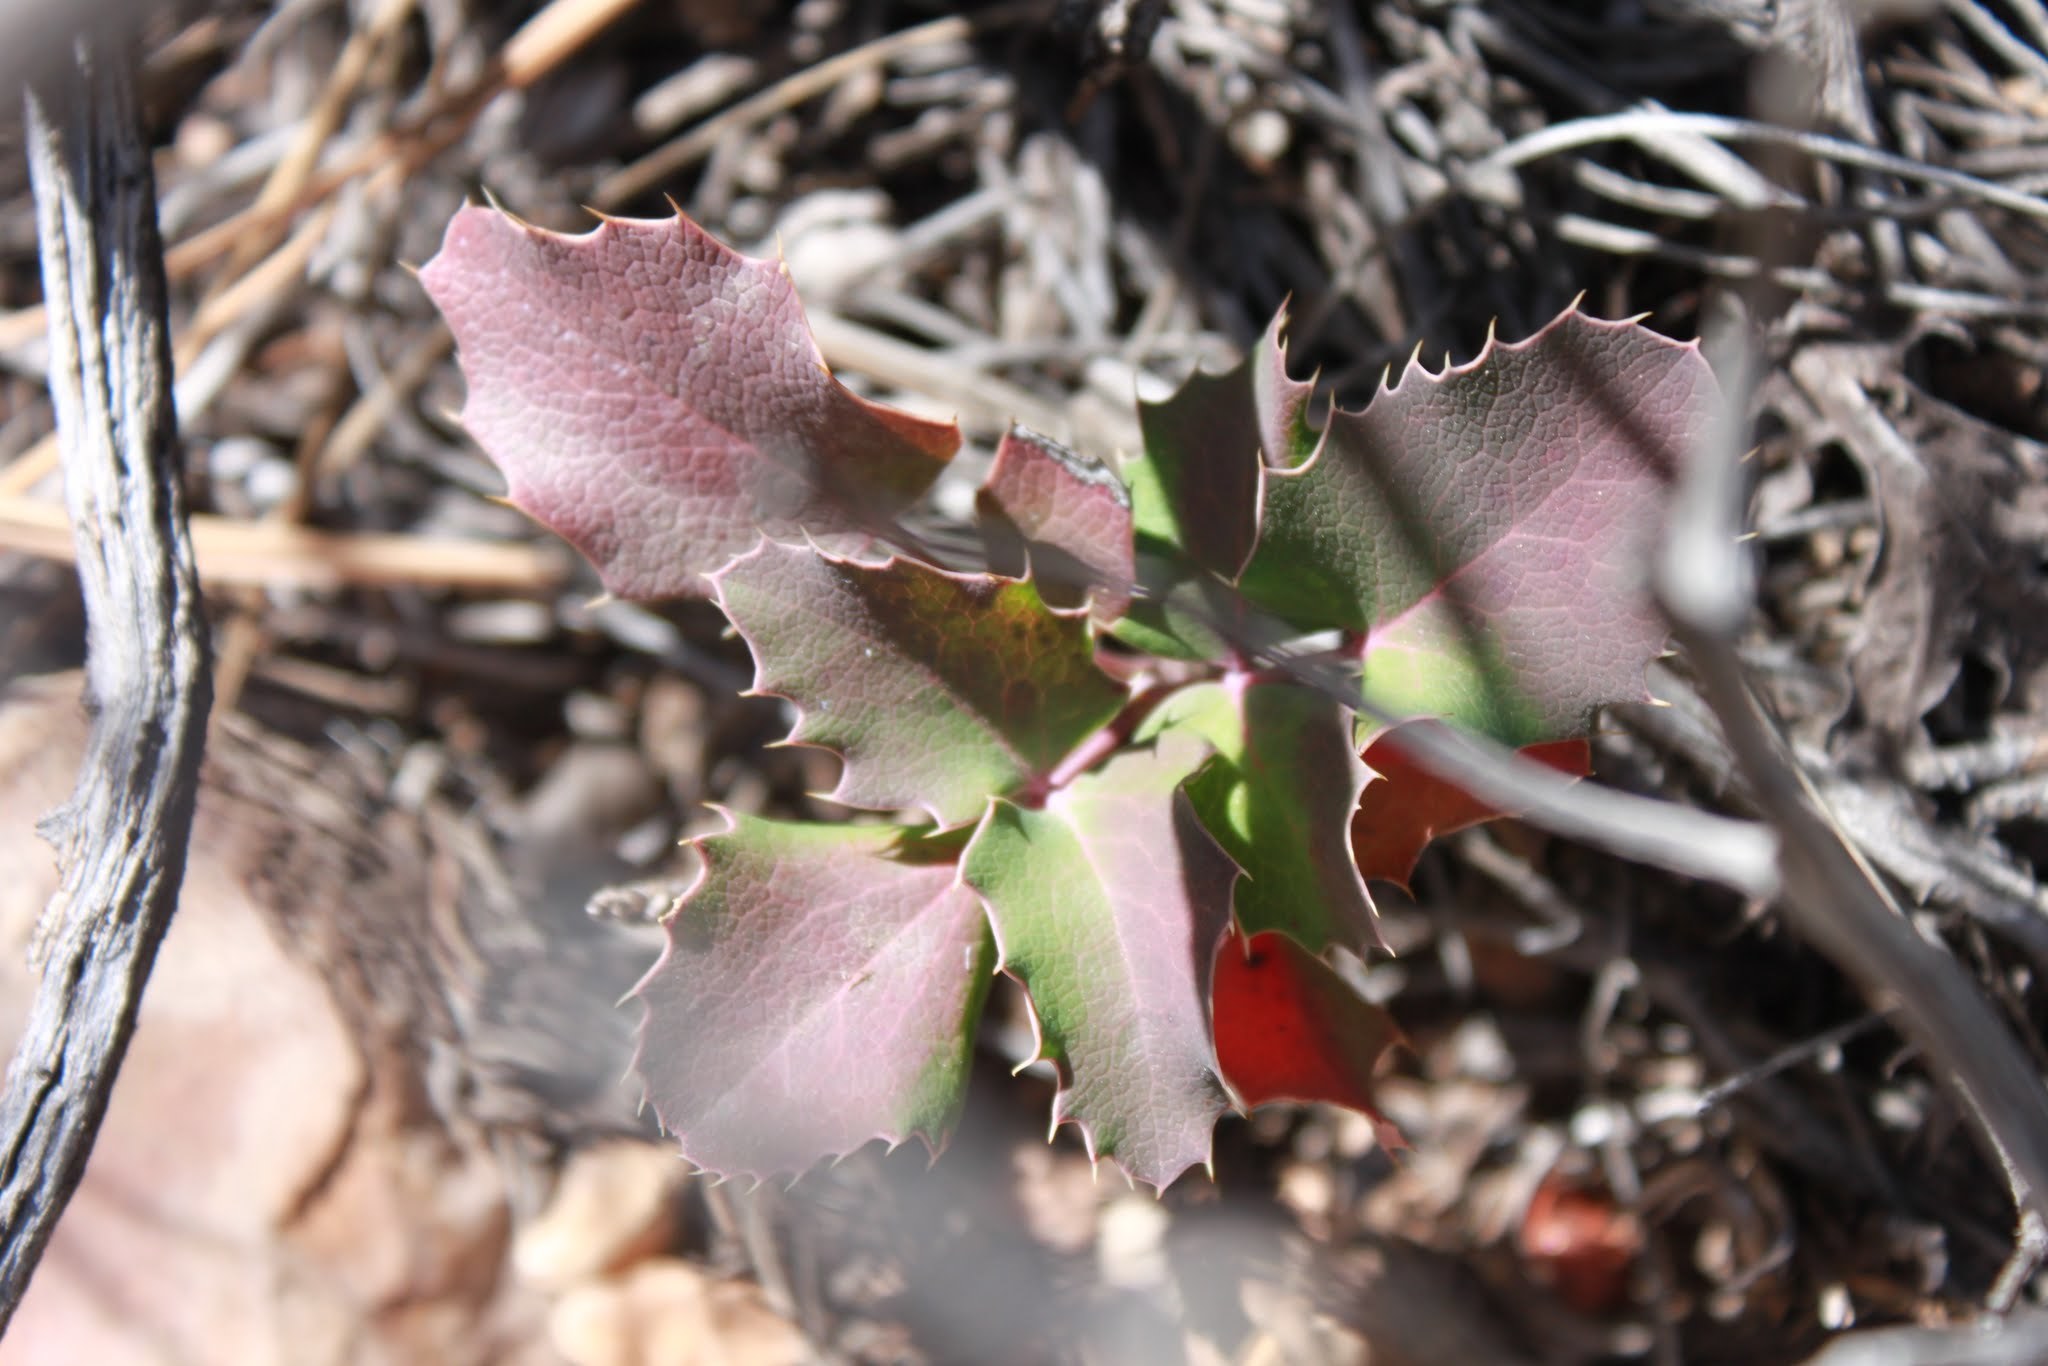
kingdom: Plantae
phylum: Tracheophyta
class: Magnoliopsida
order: Ranunculales
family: Berberidaceae
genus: Mahonia
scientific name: Mahonia repens
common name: Creeping oregon-grape
